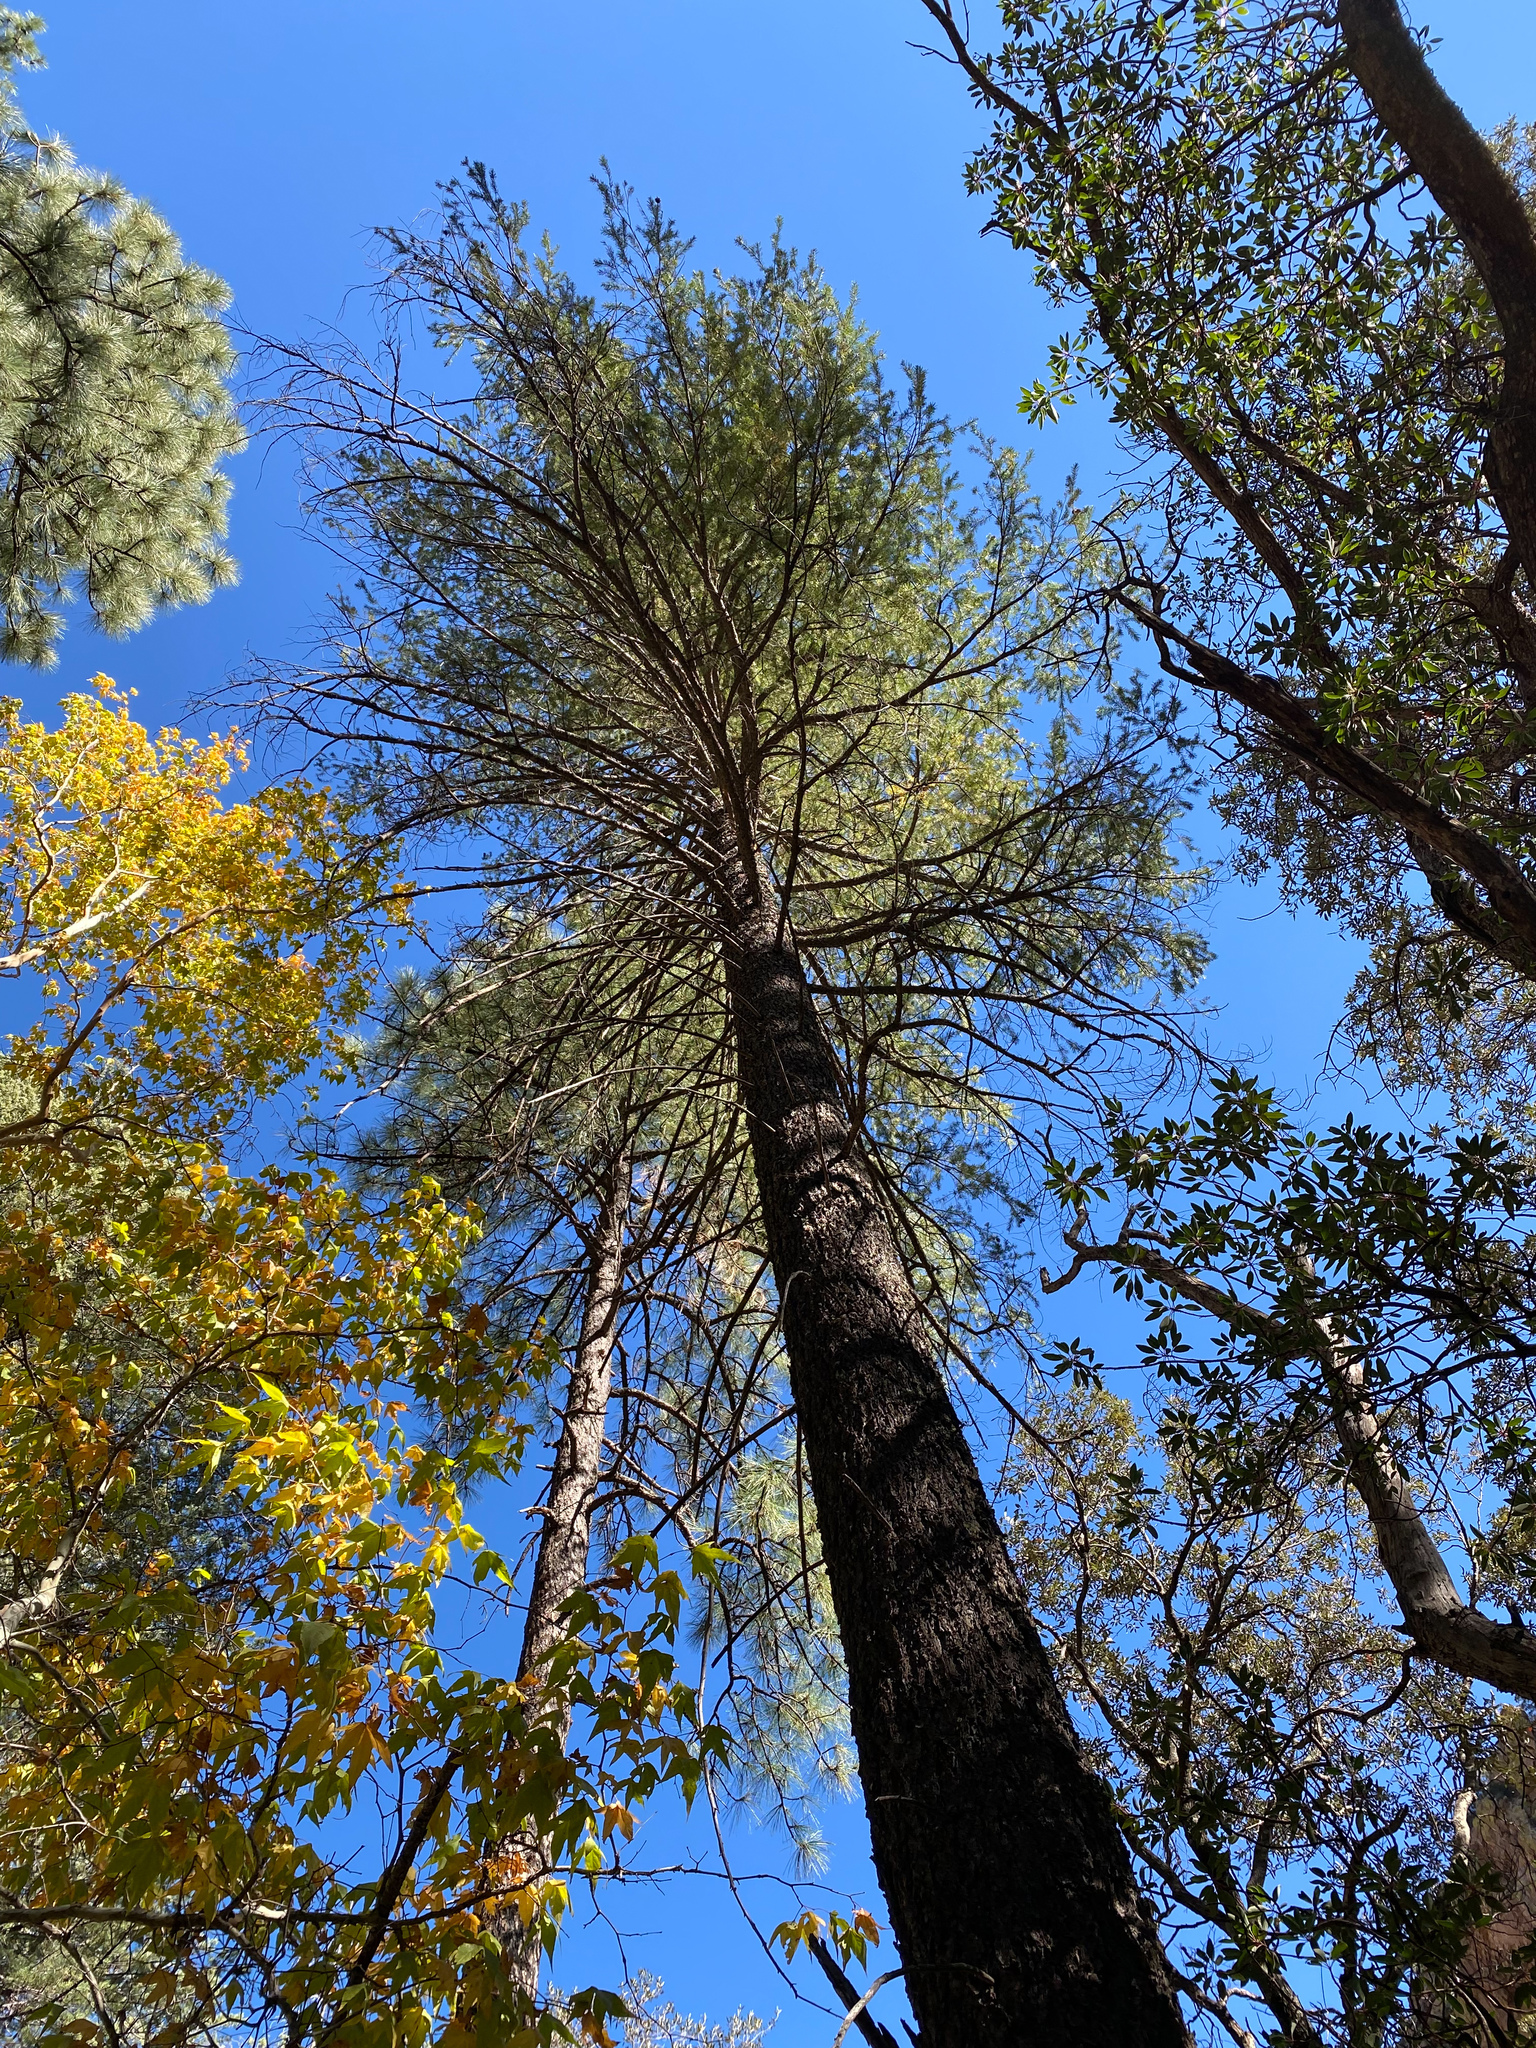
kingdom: Plantae
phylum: Tracheophyta
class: Pinopsida
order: Pinales
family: Pinaceae
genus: Pseudotsuga
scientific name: Pseudotsuga menziesii
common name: Douglas fir
